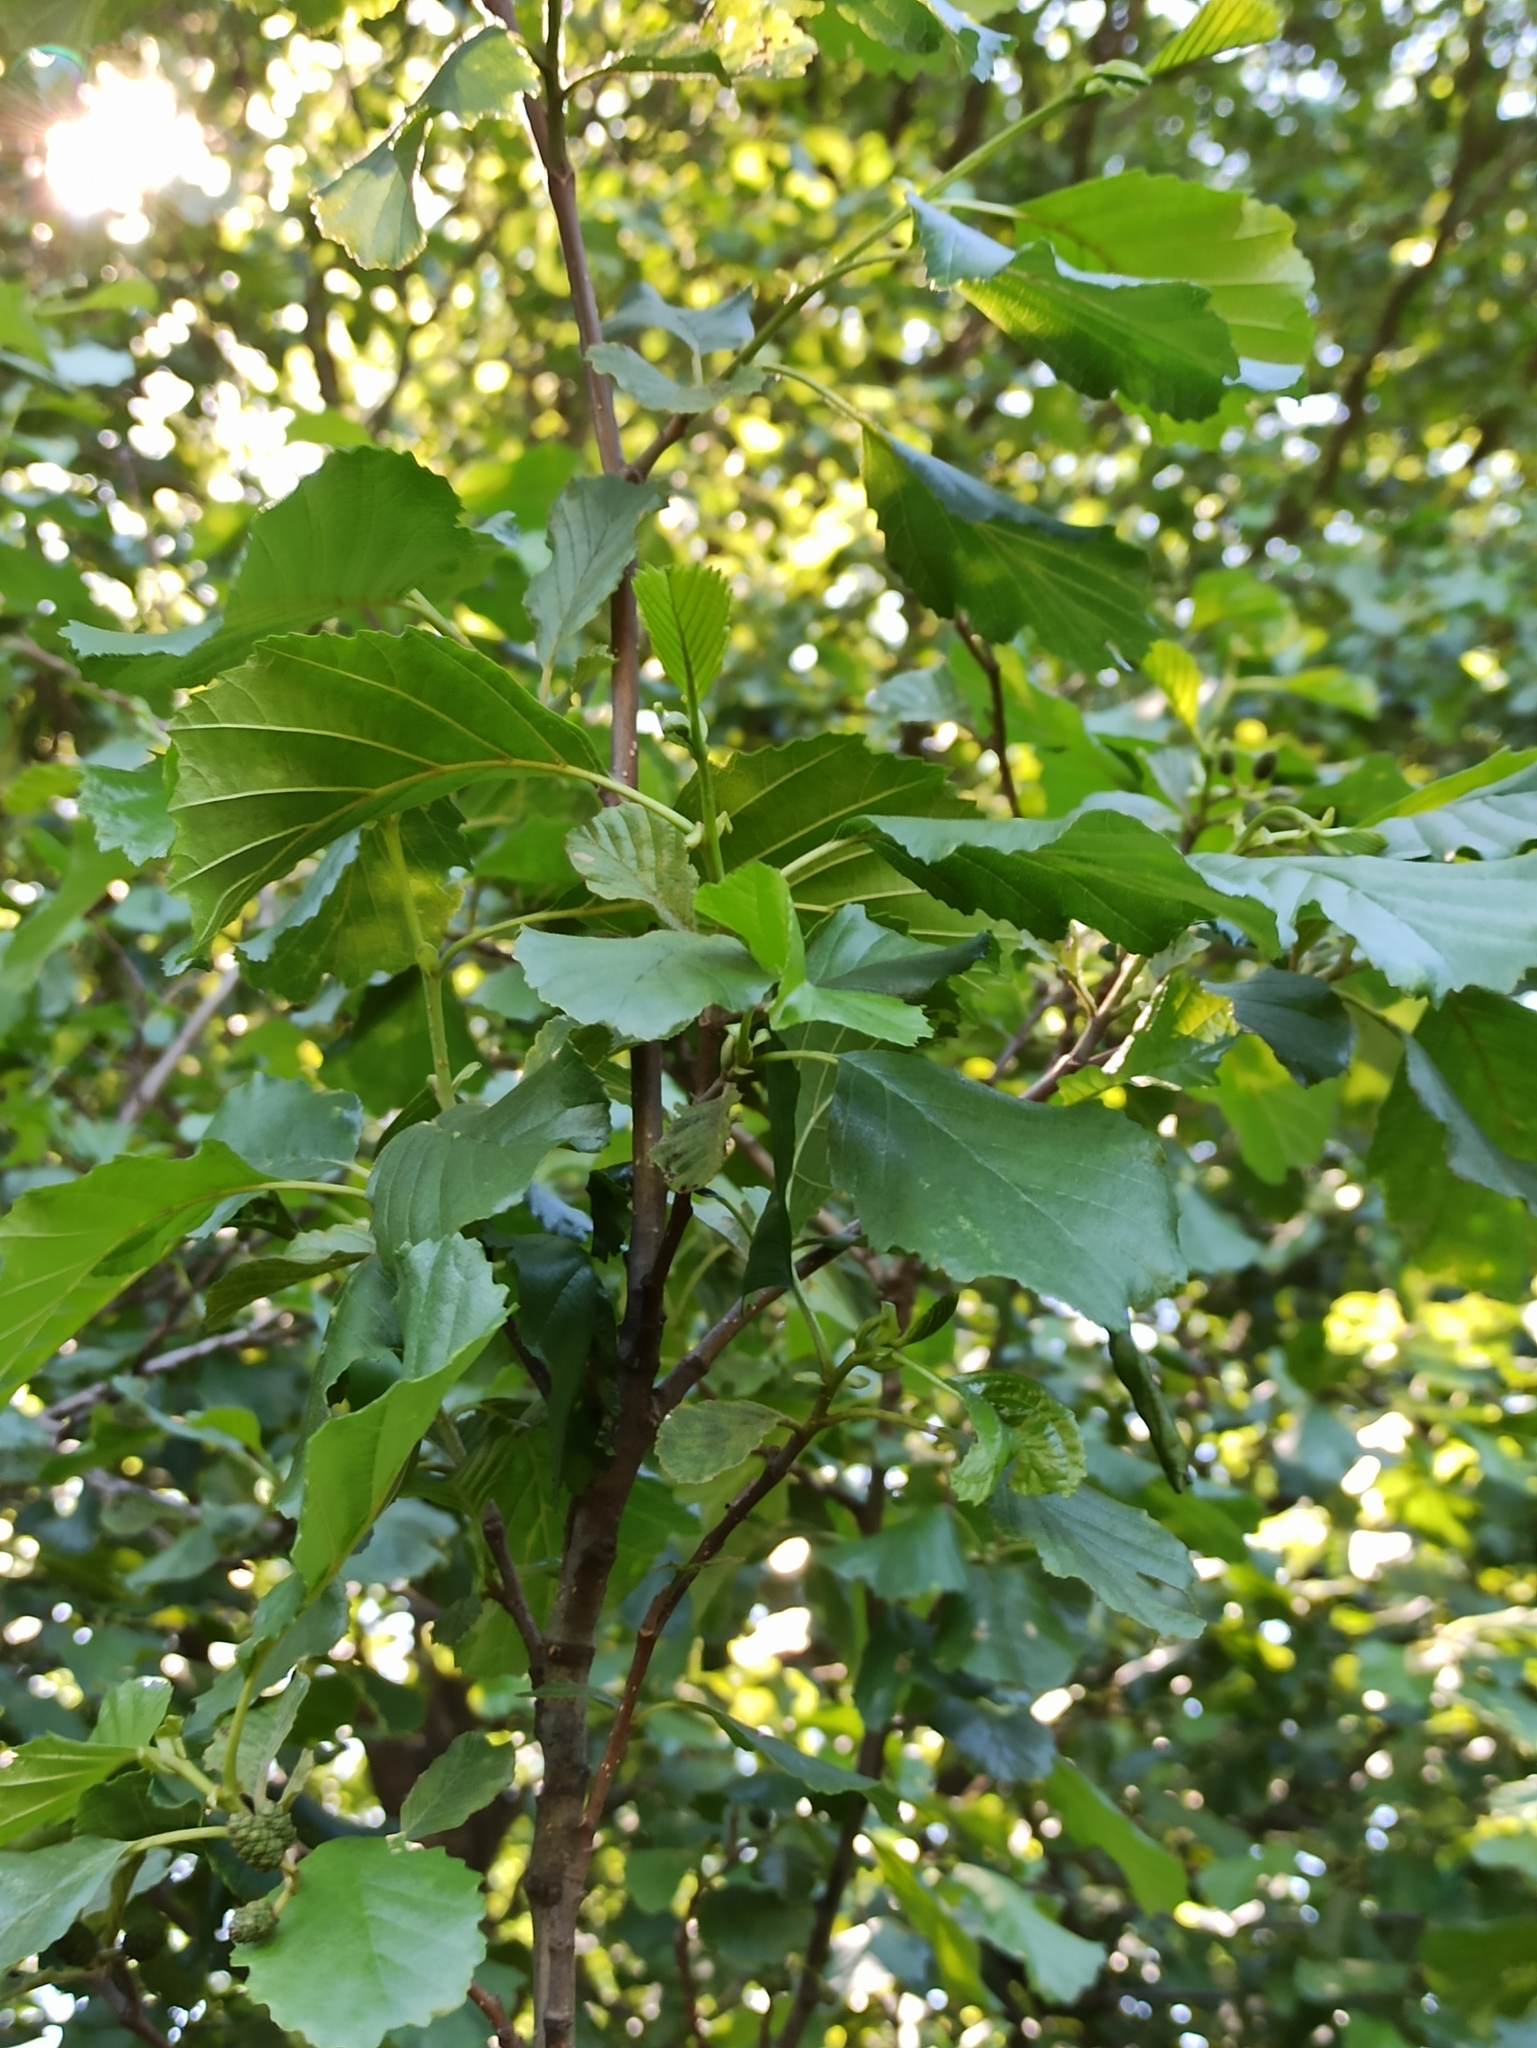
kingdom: Plantae
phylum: Tracheophyta
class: Magnoliopsida
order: Fagales
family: Betulaceae
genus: Alnus
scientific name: Alnus glutinosa
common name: Black alder
